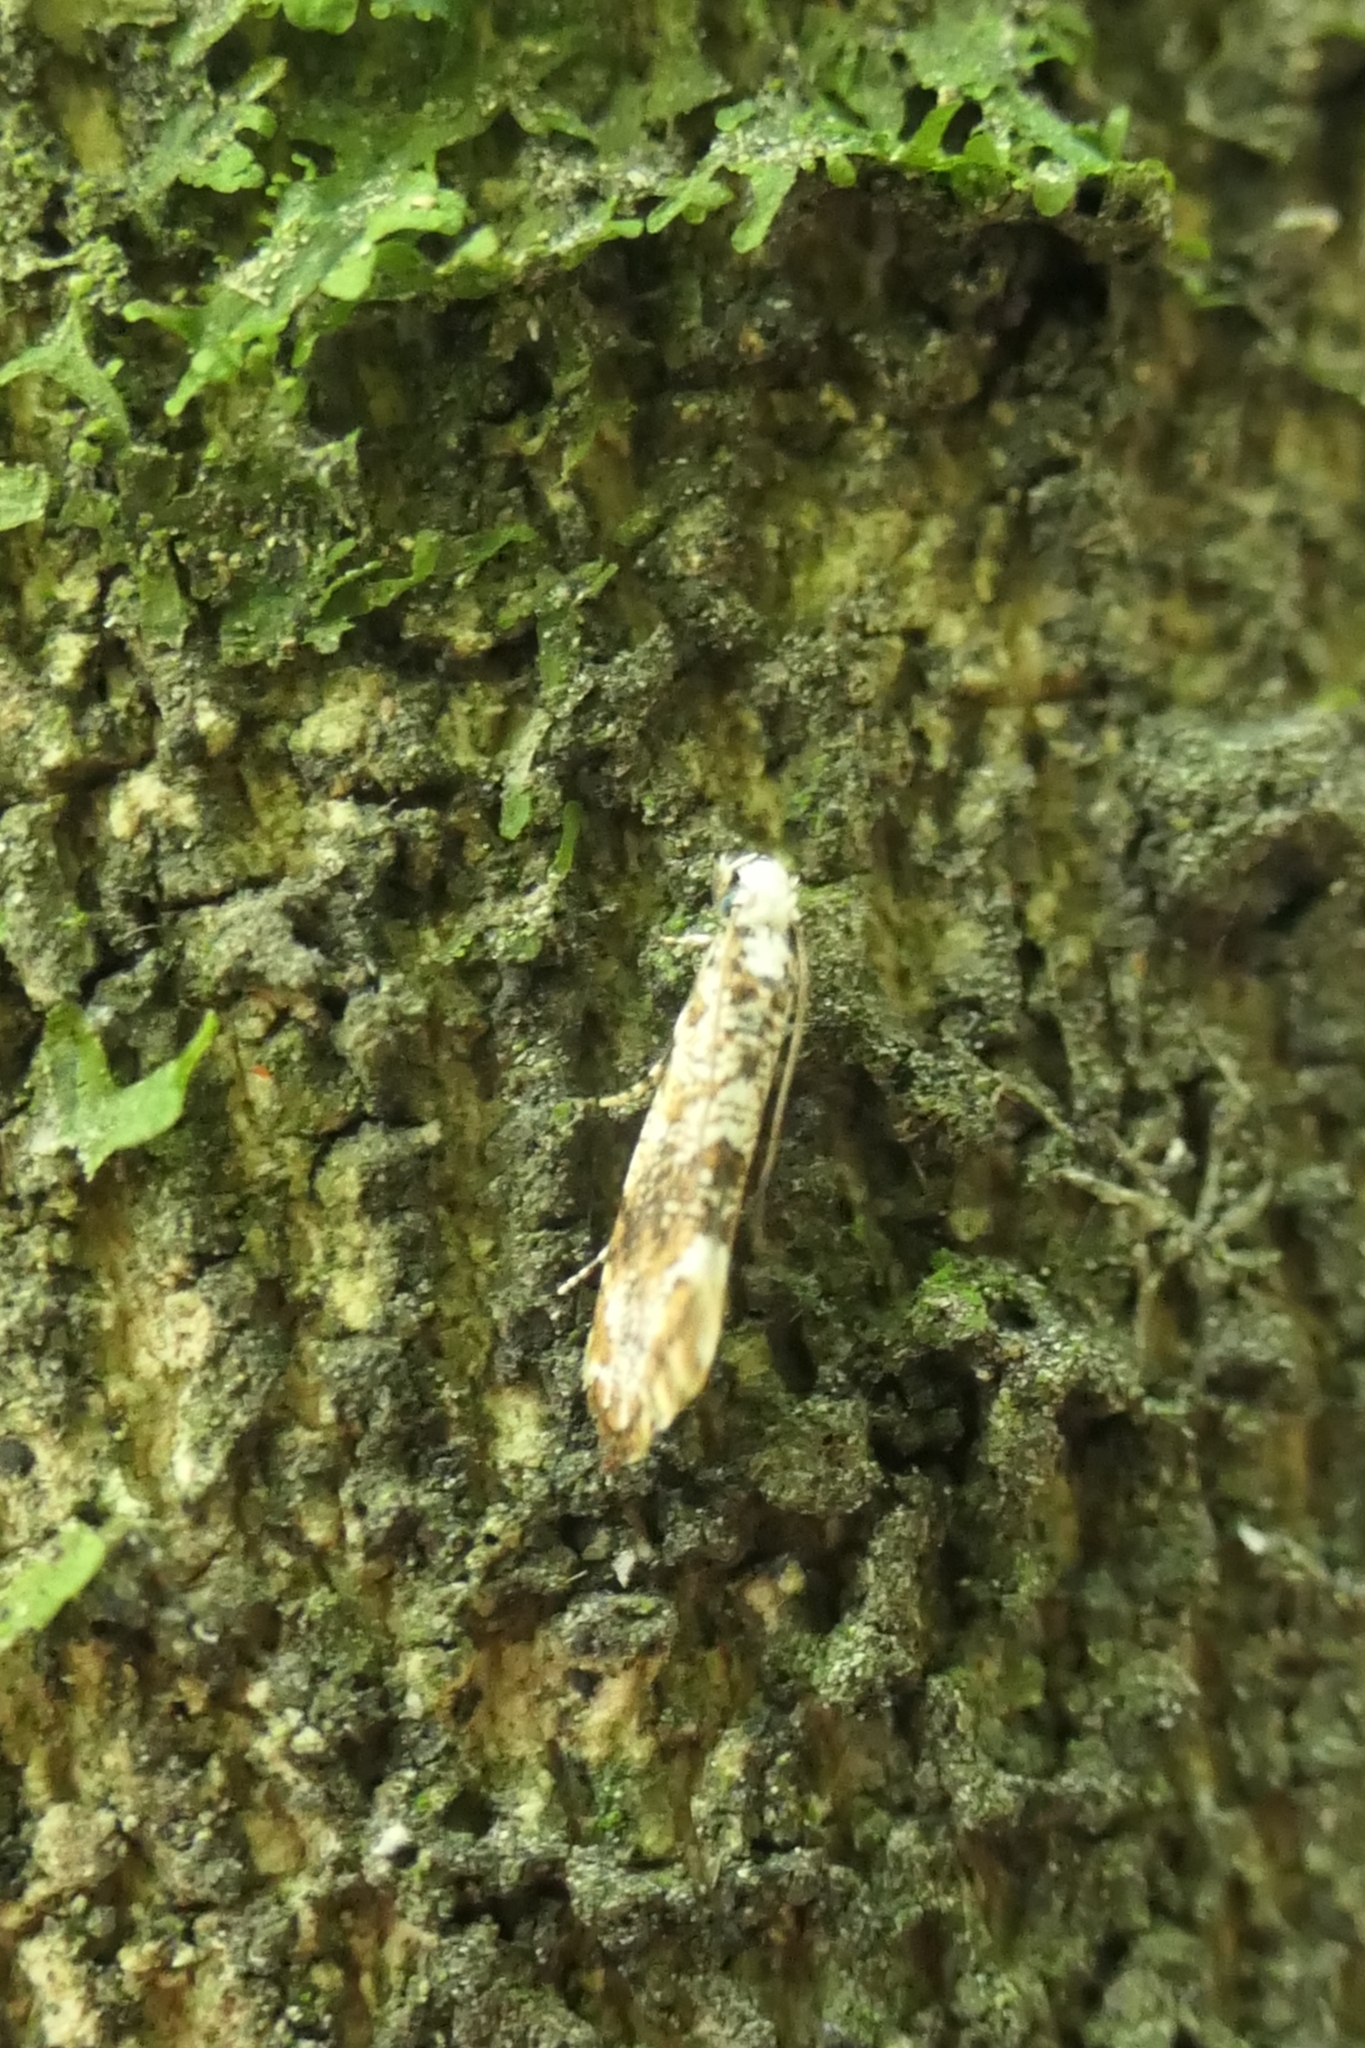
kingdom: Animalia
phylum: Arthropoda
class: Insecta
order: Lepidoptera
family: Tineidae
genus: Eschatotypa
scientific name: Eschatotypa derogatella
